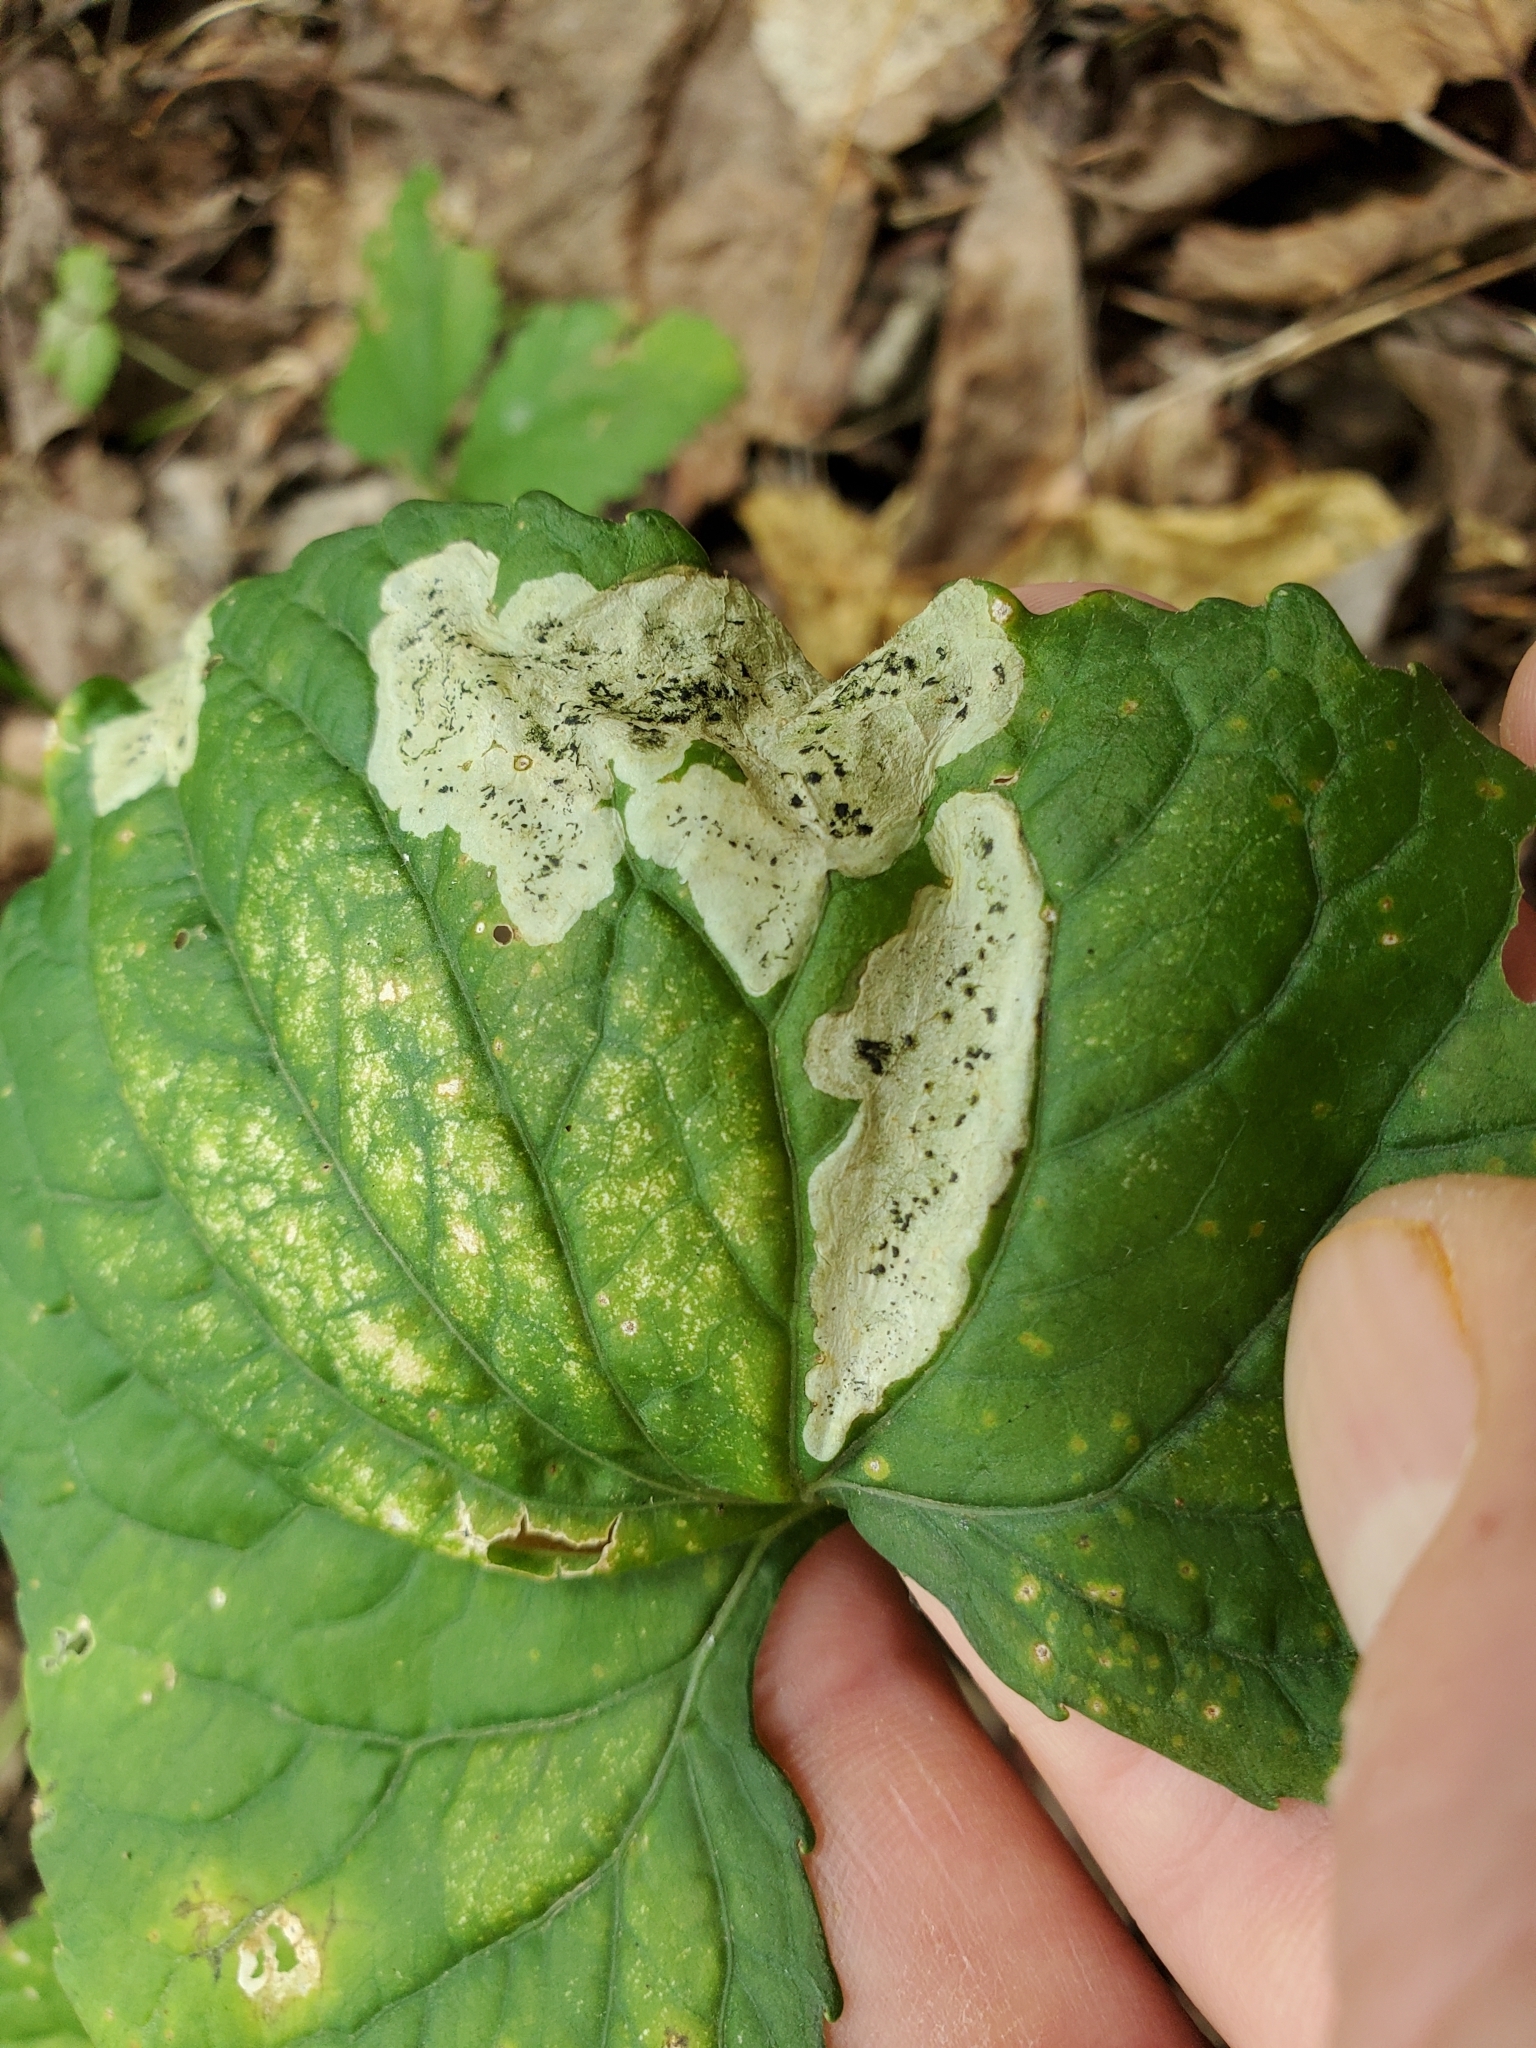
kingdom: Animalia
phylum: Arthropoda
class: Insecta
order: Diptera
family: Agromyzidae
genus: Liriomyza
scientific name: Liriomyza violivora
